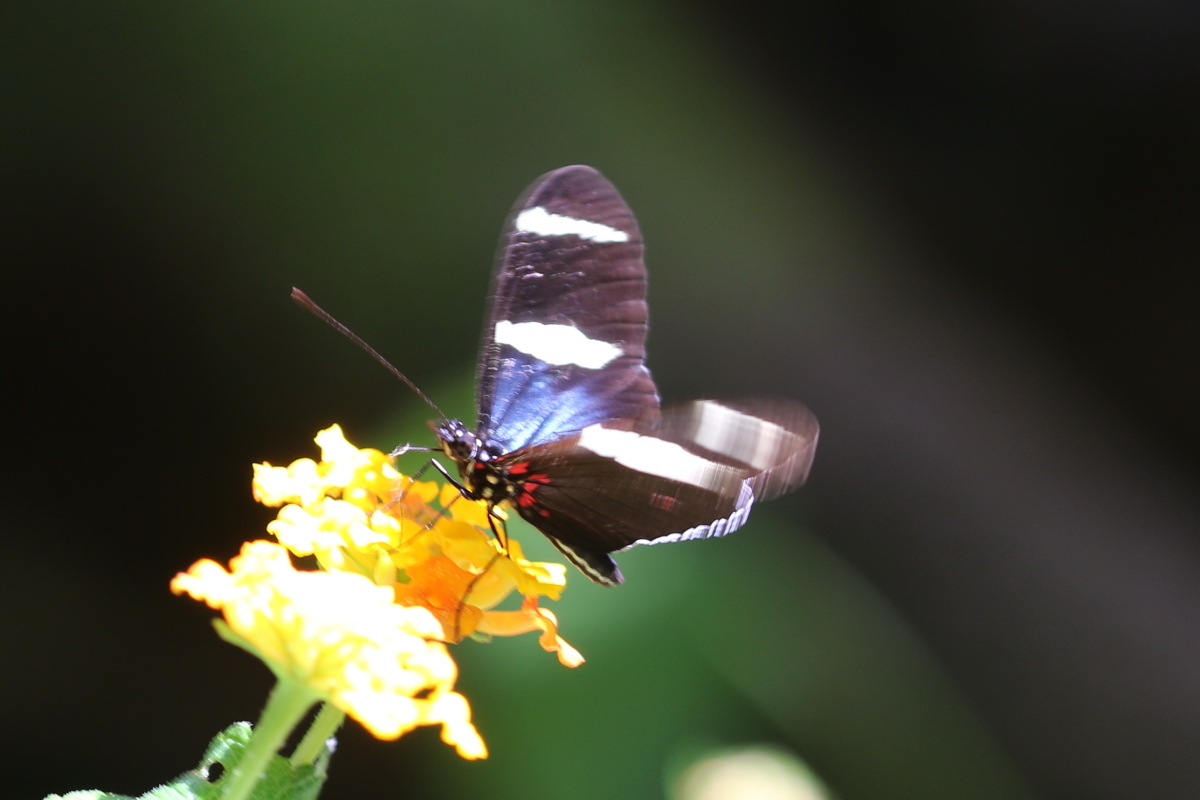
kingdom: Animalia
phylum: Arthropoda
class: Insecta
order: Lepidoptera
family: Nymphalidae
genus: Heliconius
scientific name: Heliconius sara
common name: Sara longwing
